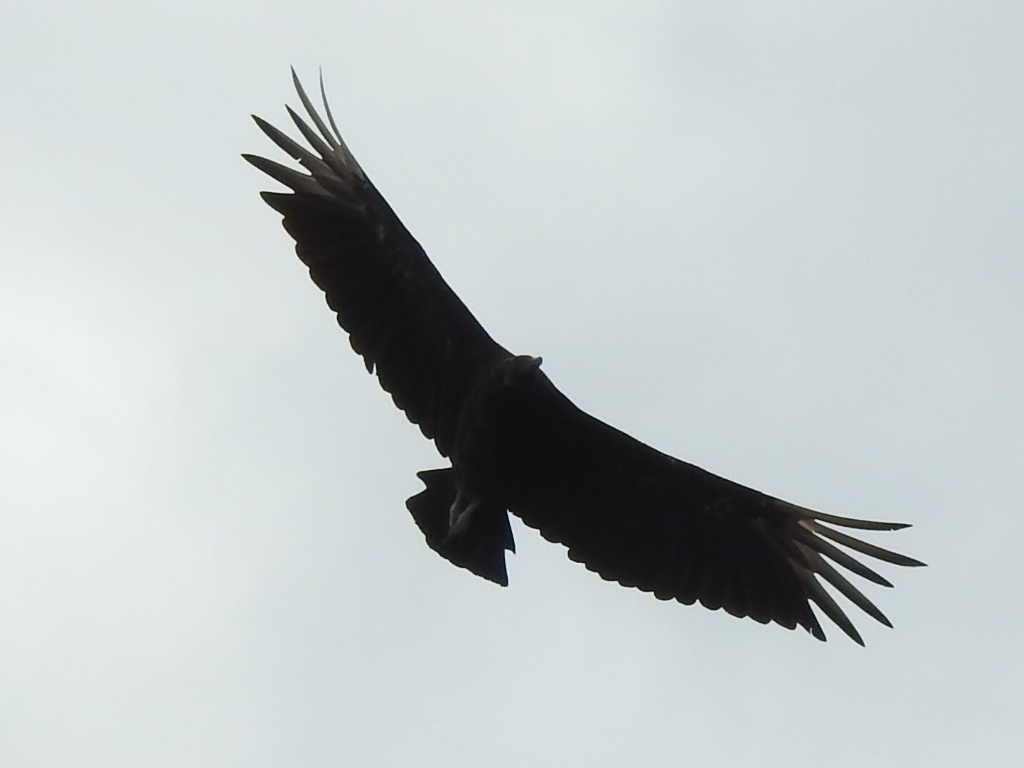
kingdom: Animalia
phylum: Chordata
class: Aves
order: Accipitriformes
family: Cathartidae
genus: Coragyps
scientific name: Coragyps atratus
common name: Black vulture
